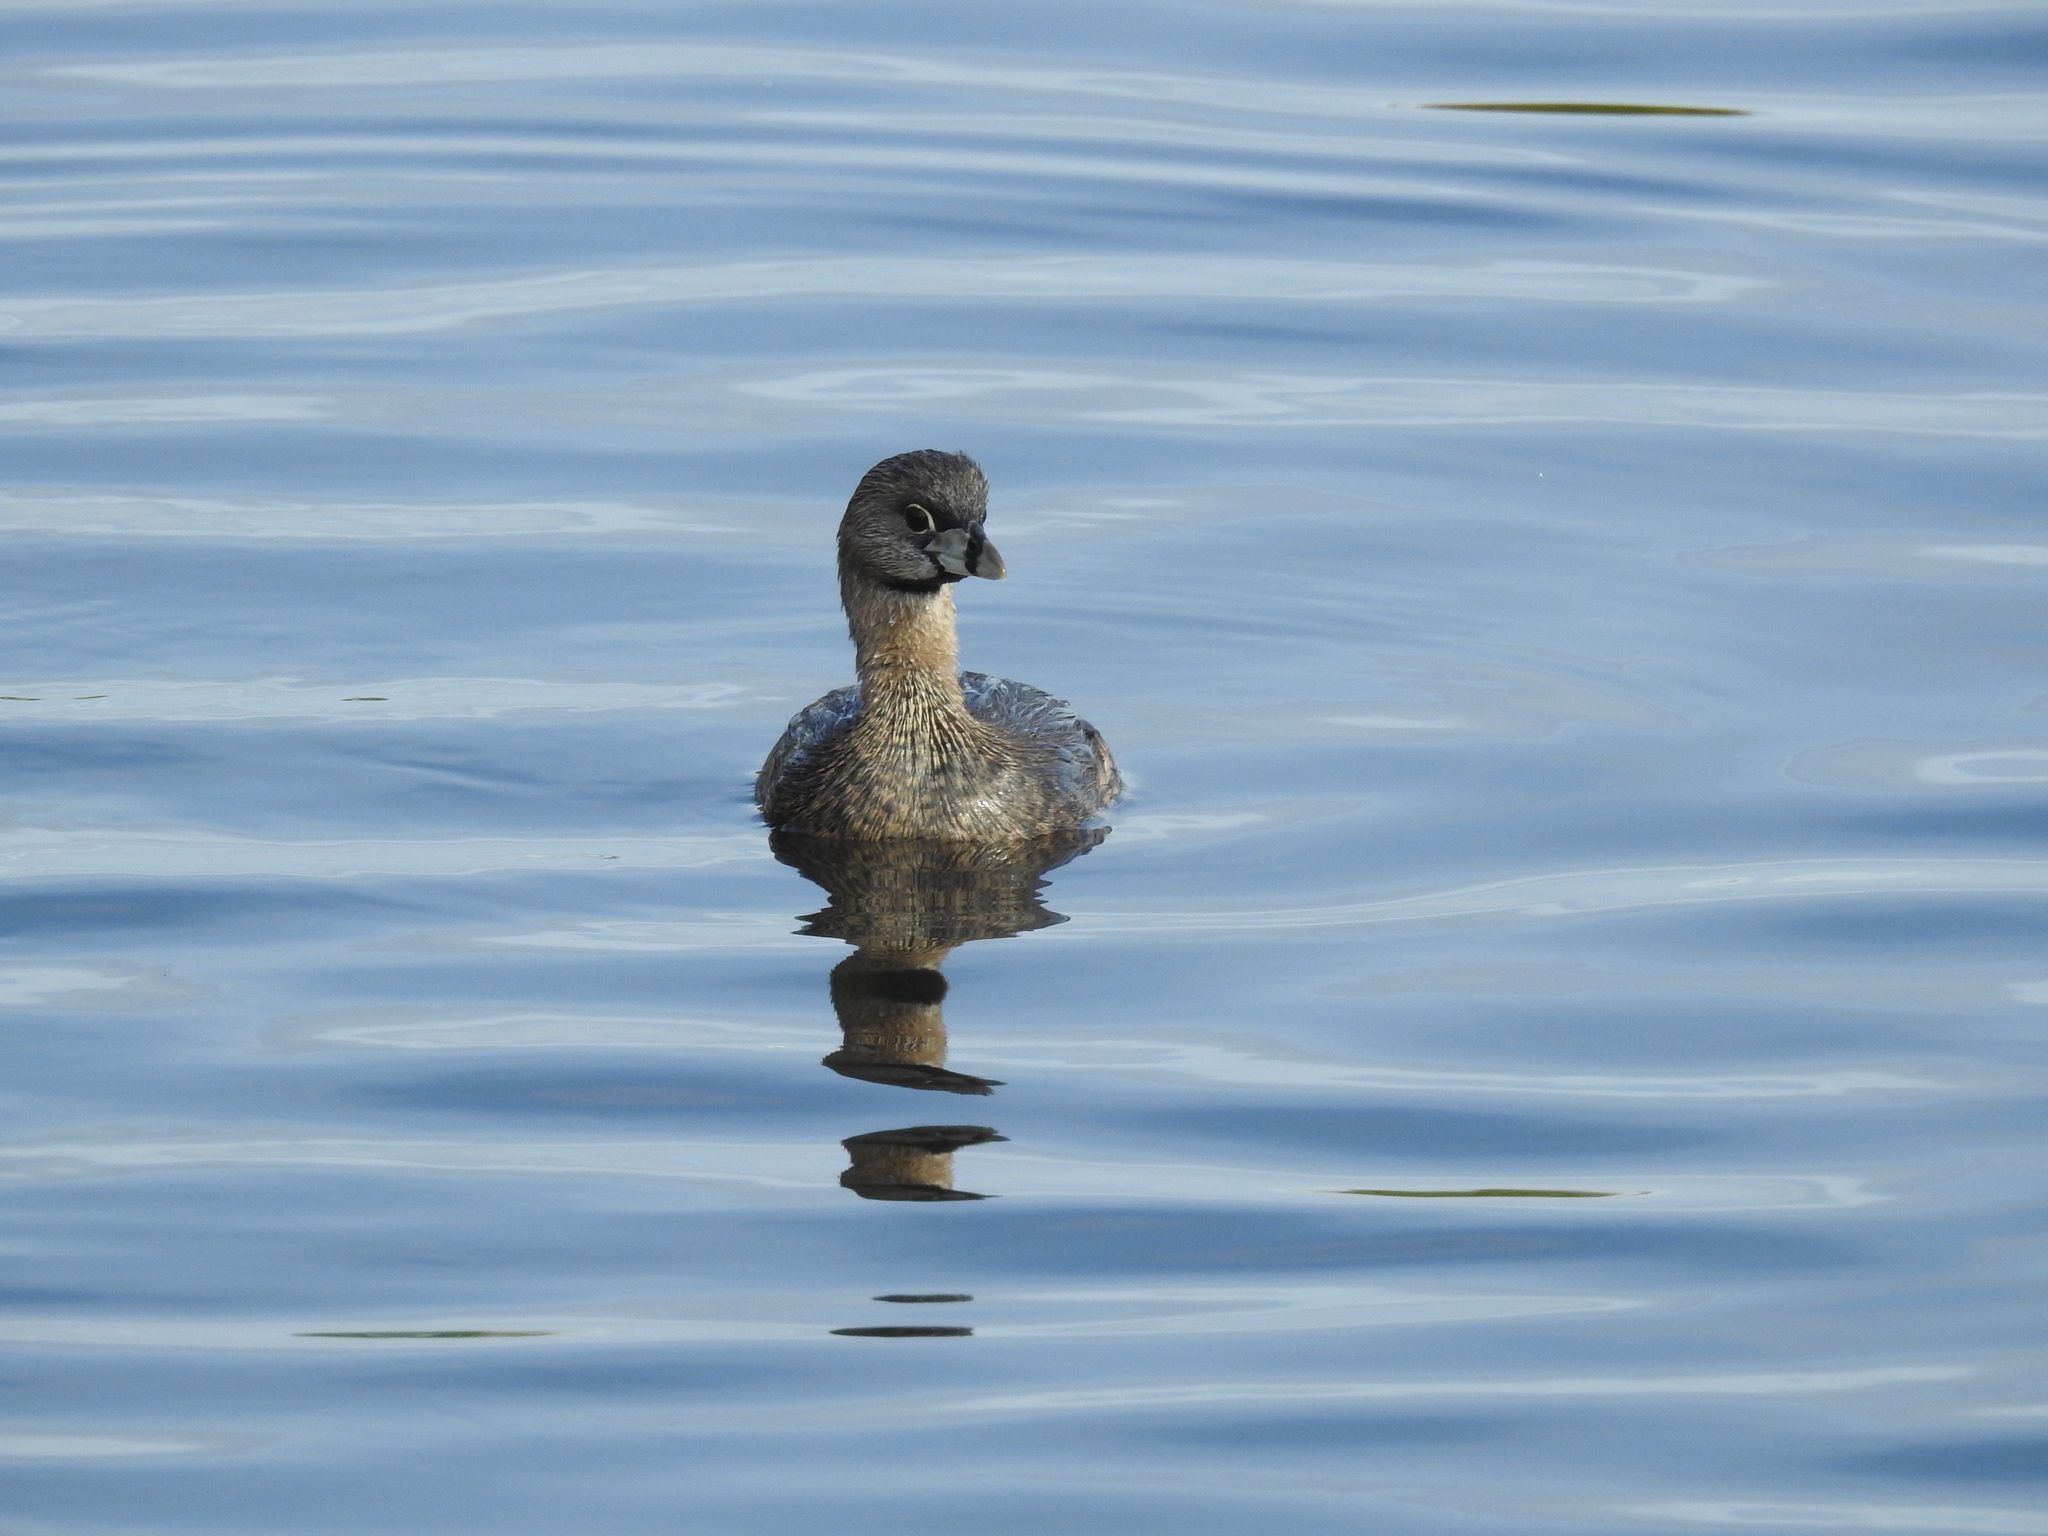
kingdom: Animalia
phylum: Chordata
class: Aves
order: Podicipediformes
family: Podicipedidae
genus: Podilymbus
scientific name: Podilymbus podiceps
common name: Pied-billed grebe
